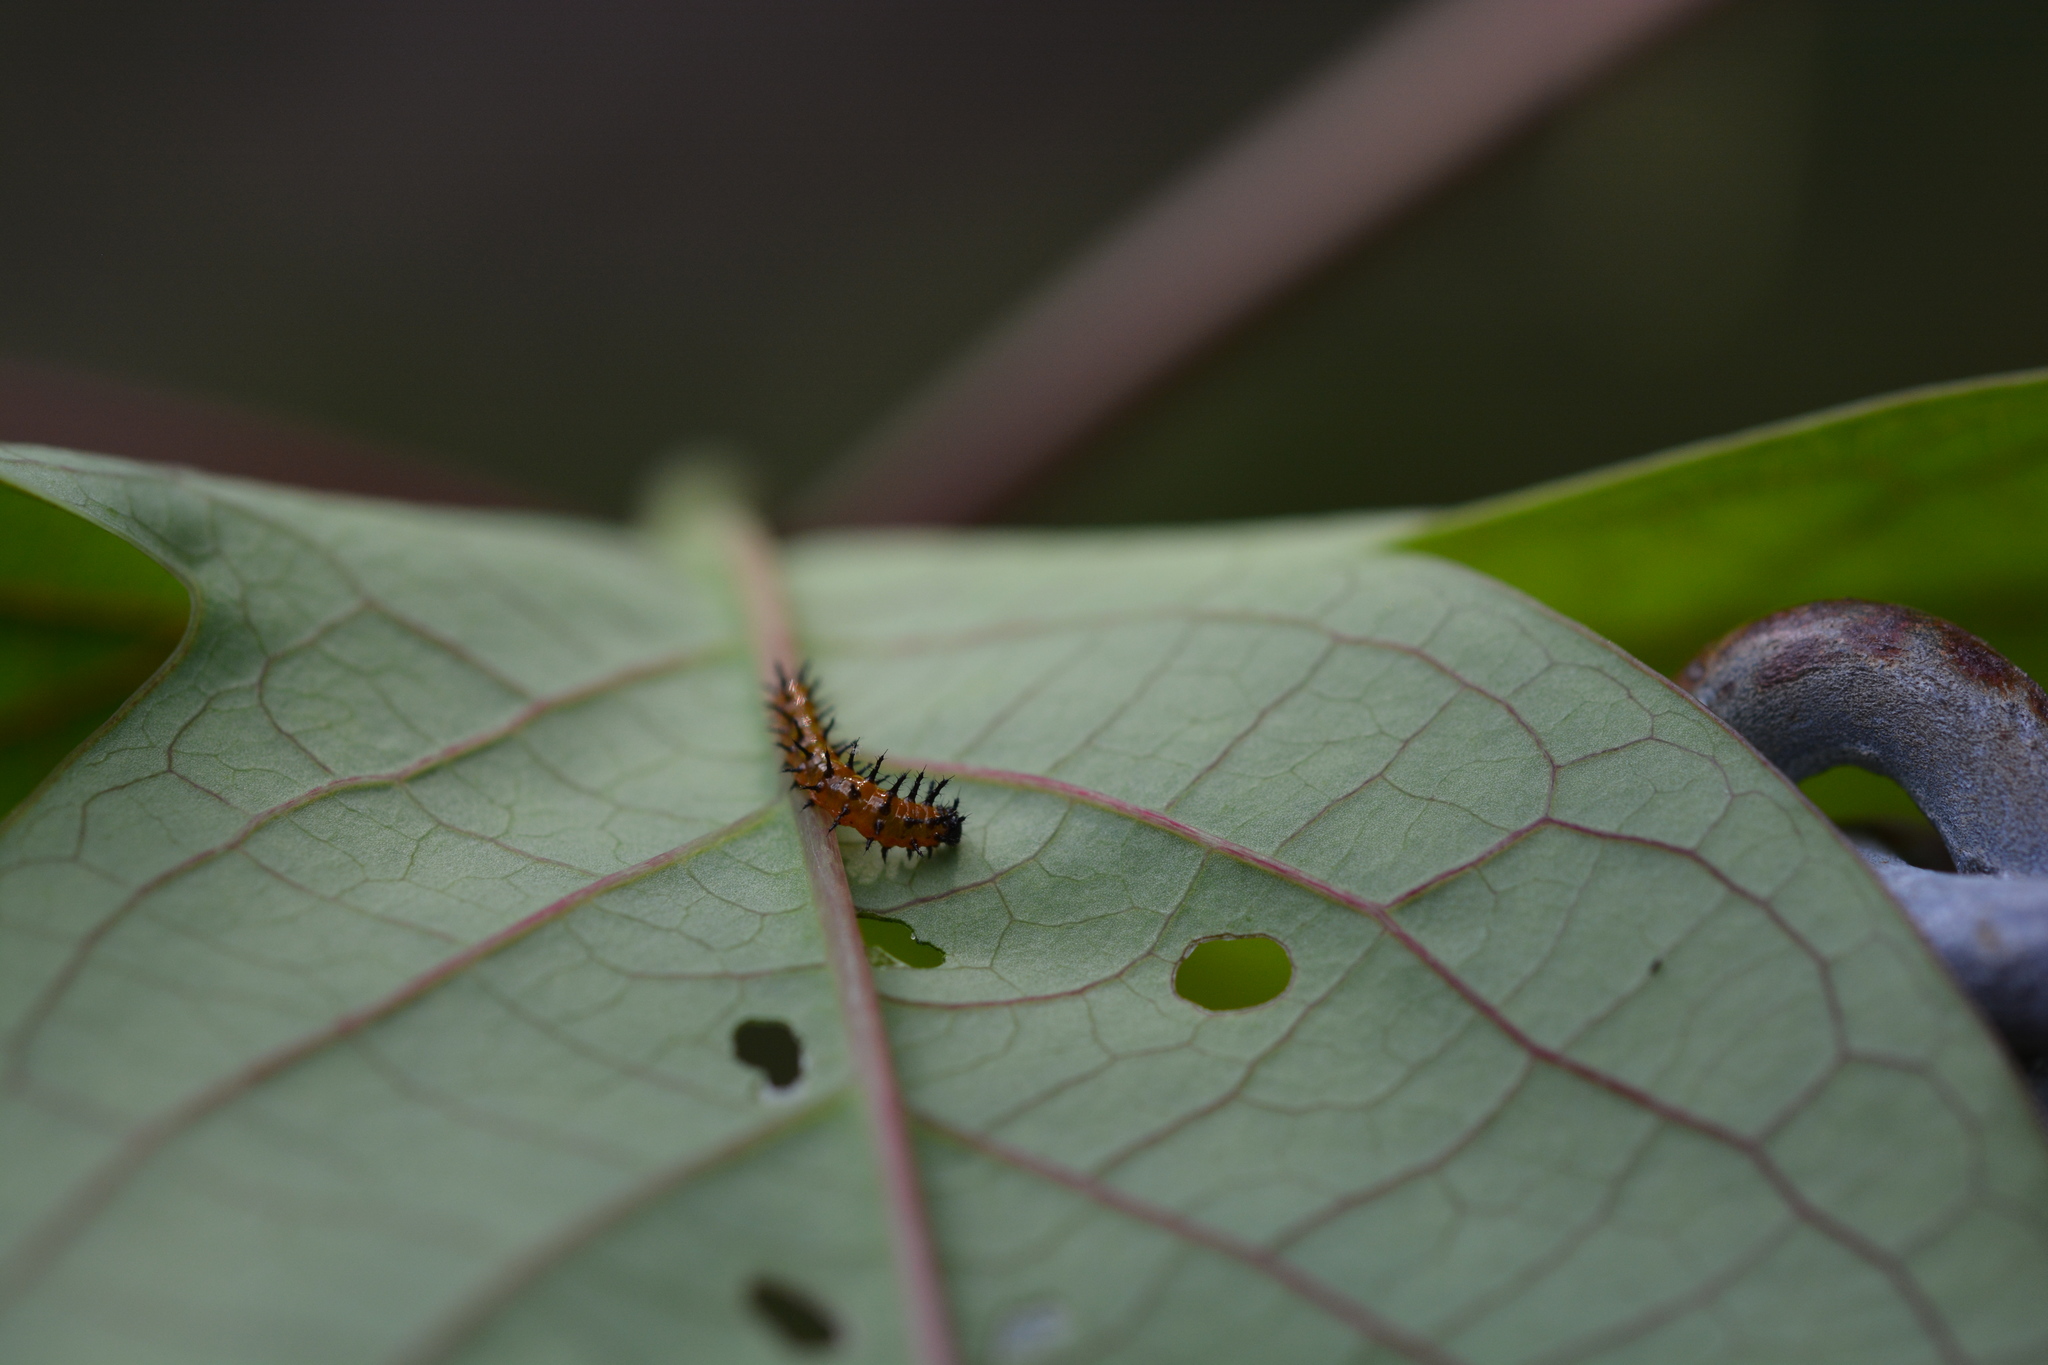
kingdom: Animalia
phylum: Arthropoda
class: Insecta
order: Lepidoptera
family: Nymphalidae
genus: Dione
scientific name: Dione vanillae
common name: Gulf fritillary
